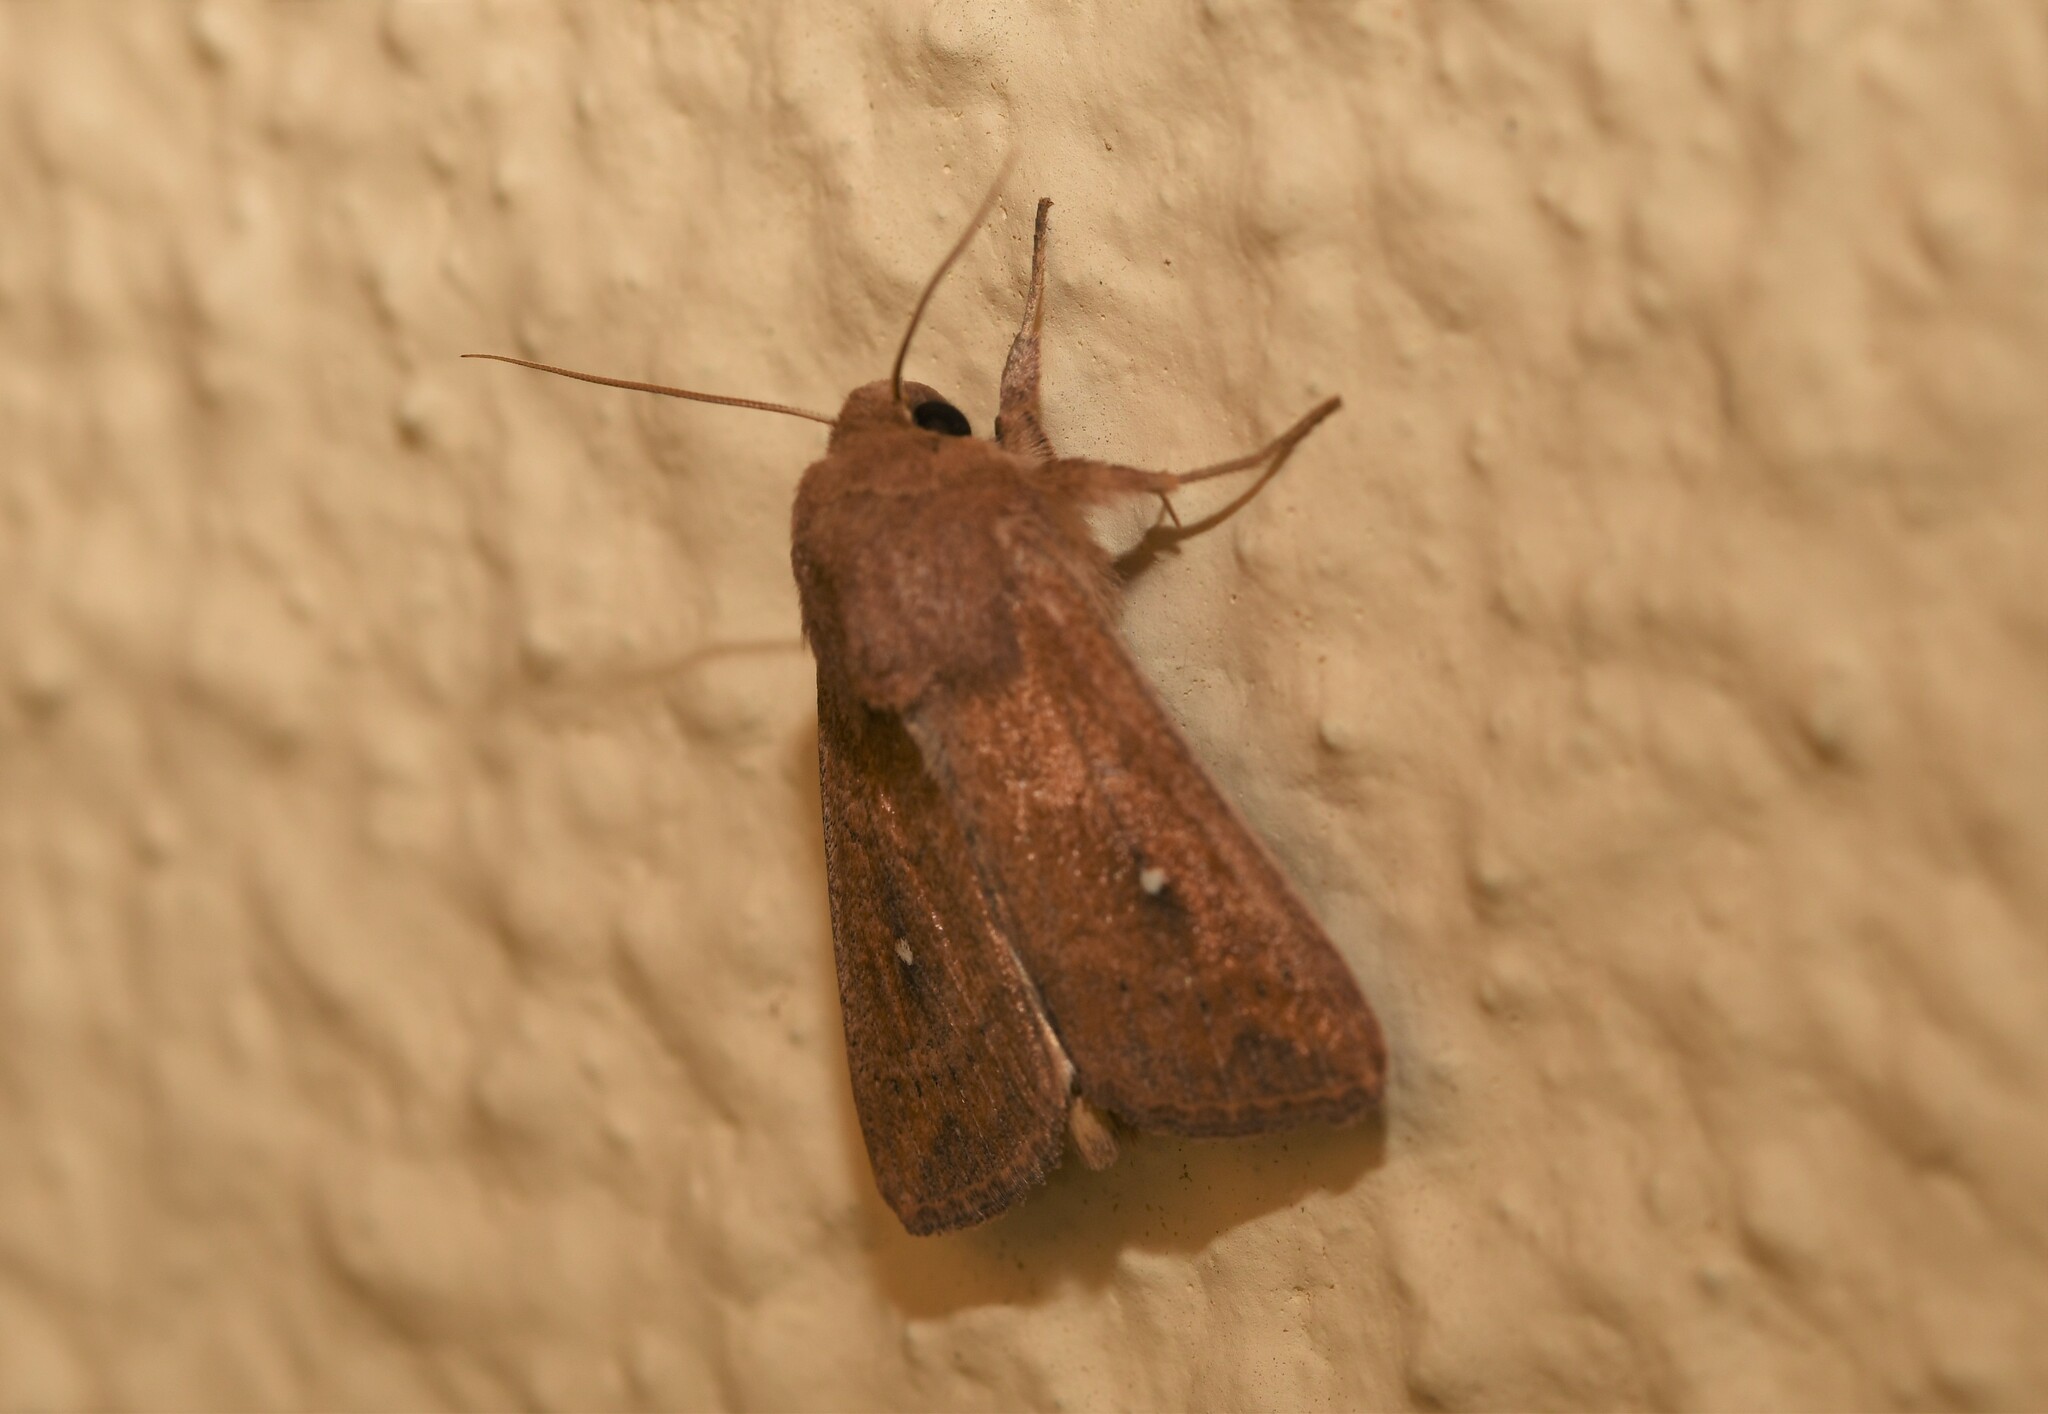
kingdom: Animalia
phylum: Arthropoda
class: Insecta
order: Lepidoptera
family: Noctuidae
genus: Mythimna
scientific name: Mythimna albipuncta
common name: White-point
